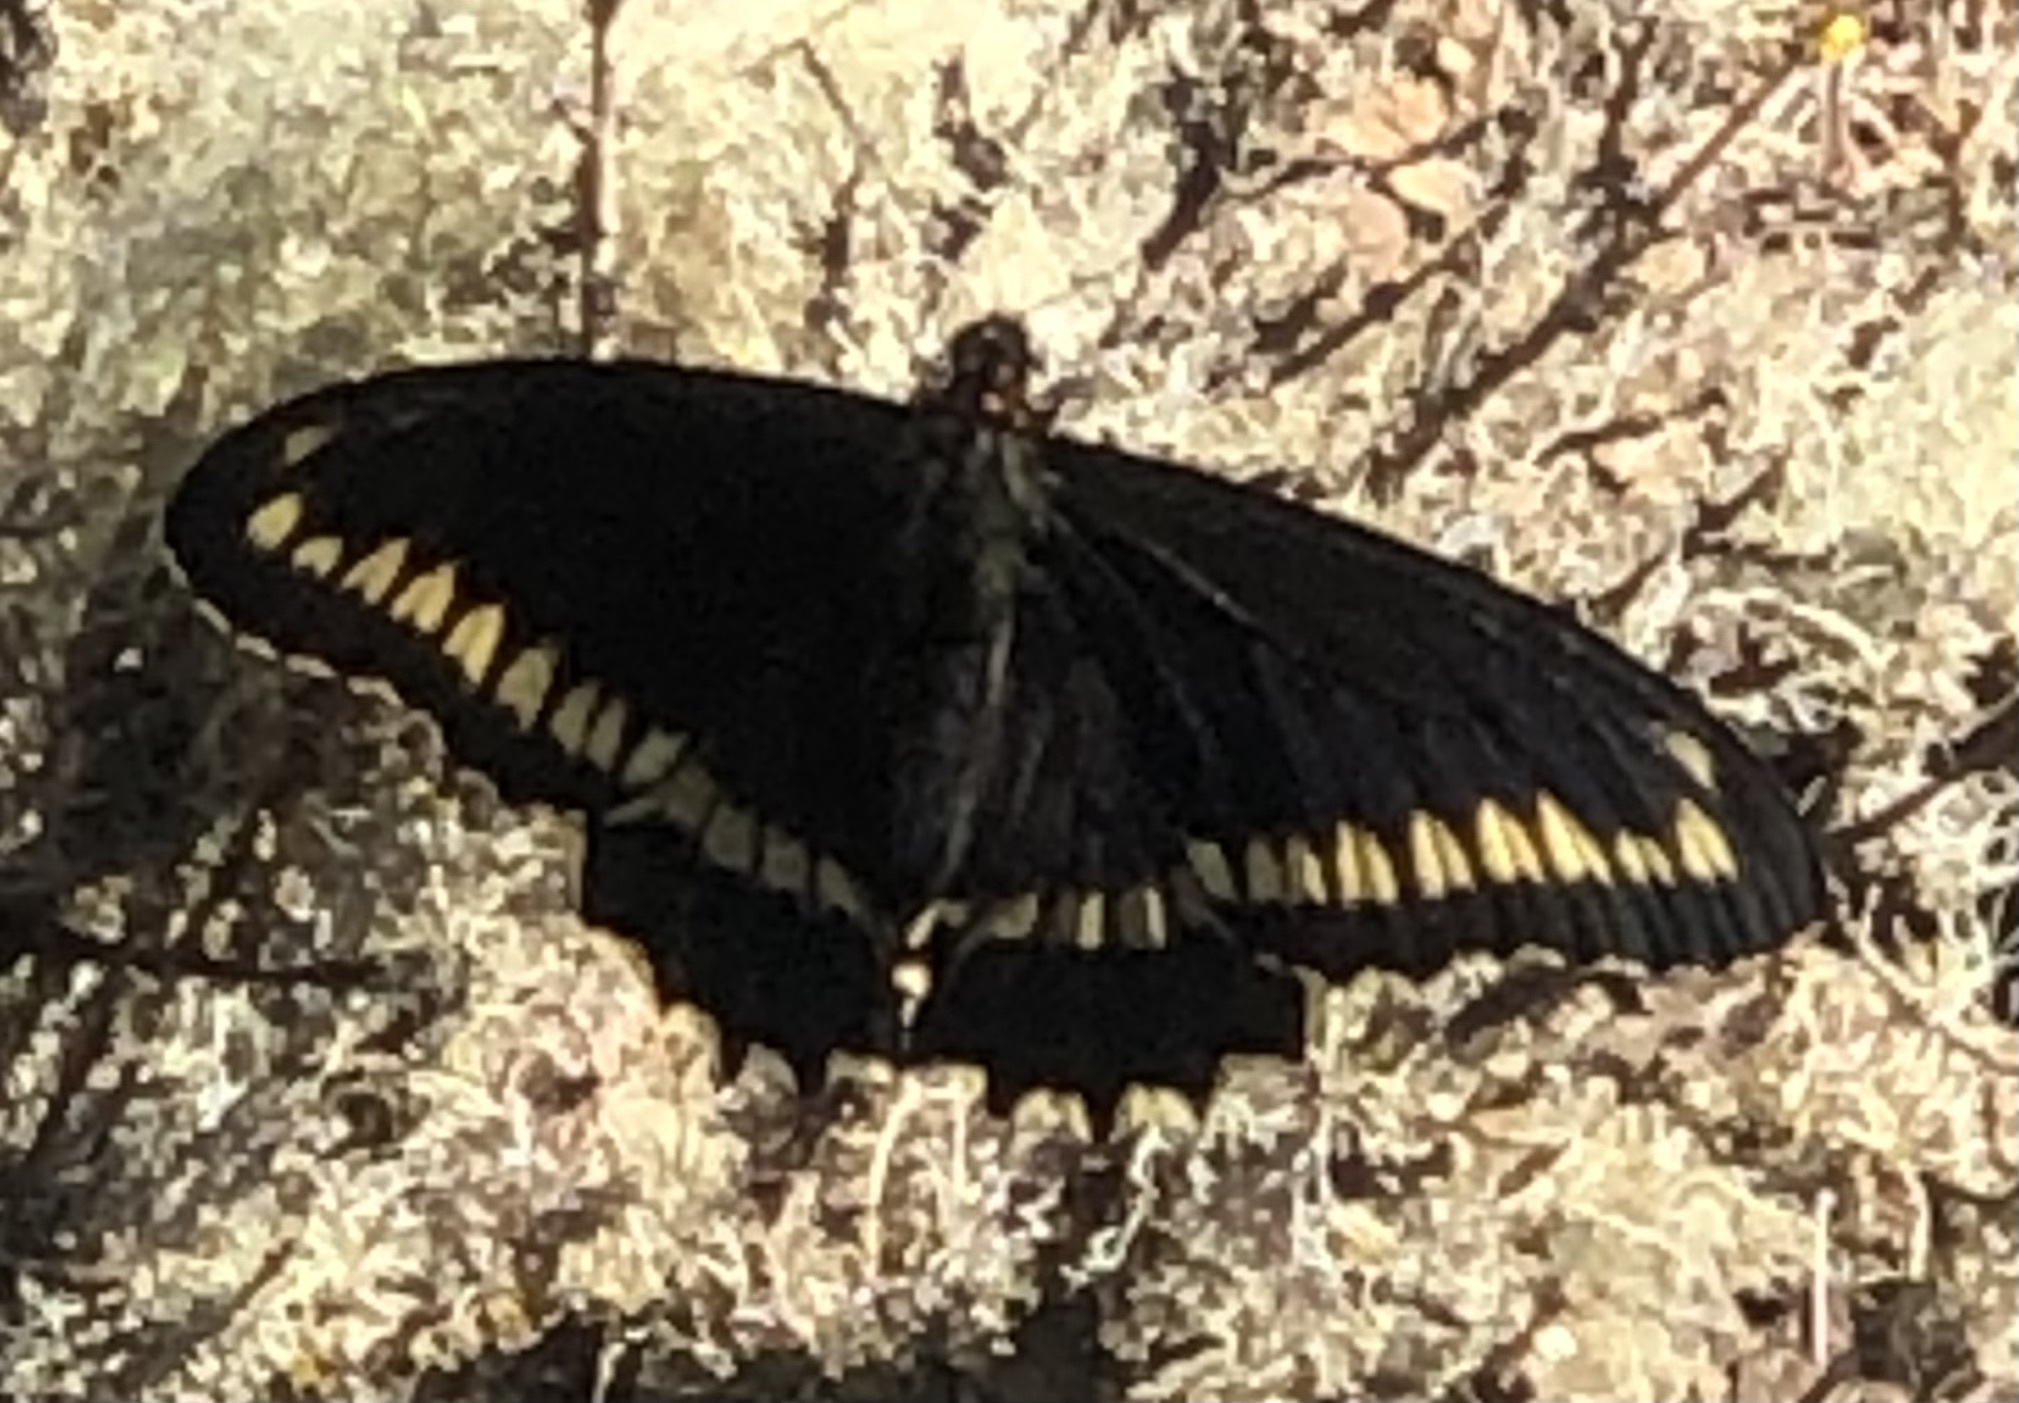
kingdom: Animalia
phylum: Arthropoda
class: Insecta
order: Lepidoptera
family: Papilionidae
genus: Battus
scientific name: Battus polydamas
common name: Polydamas swallowtail
